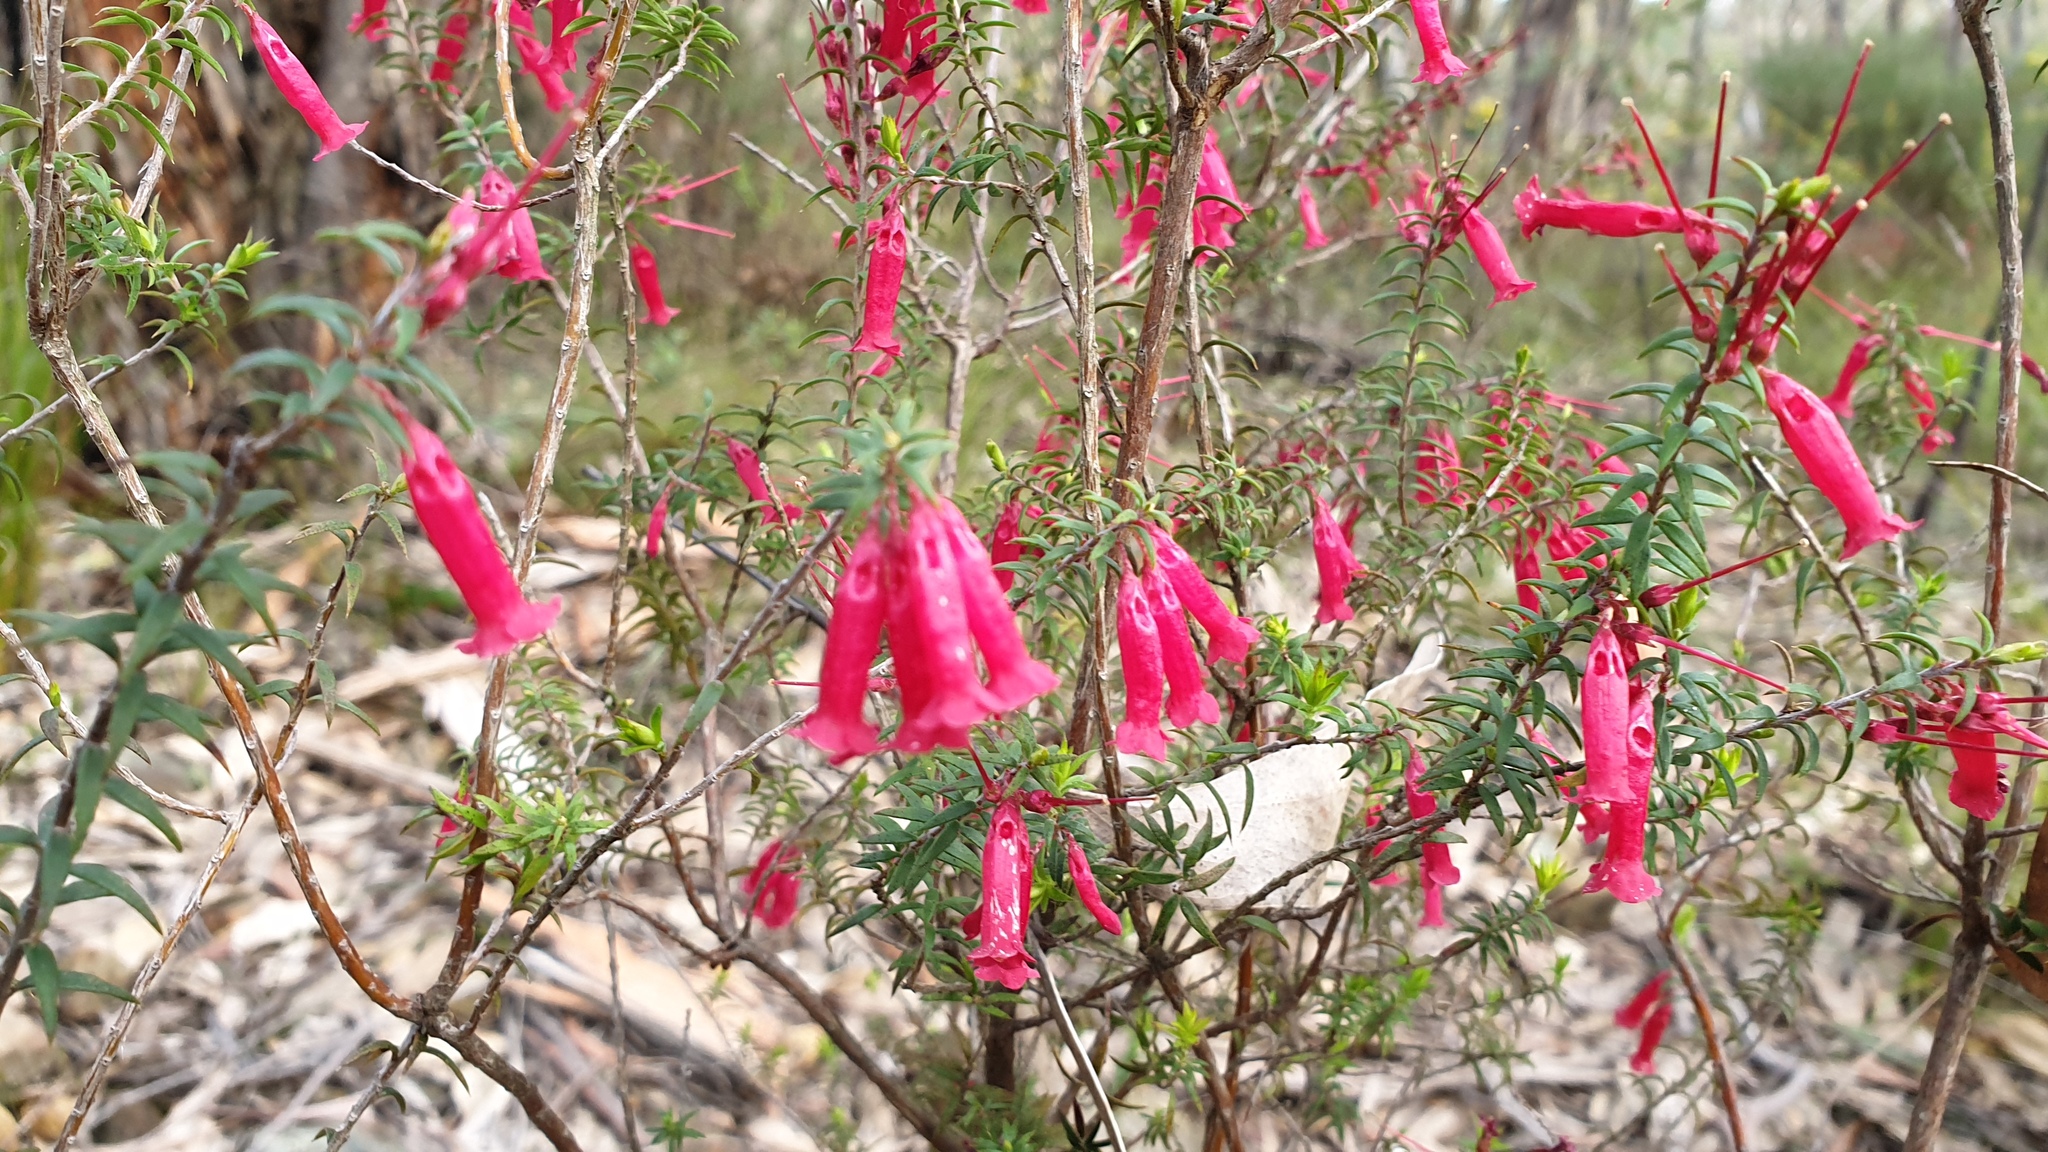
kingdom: Plantae
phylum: Tracheophyta
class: Magnoliopsida
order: Ericales
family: Ericaceae
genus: Epacris
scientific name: Epacris impressa
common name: Common-heath
